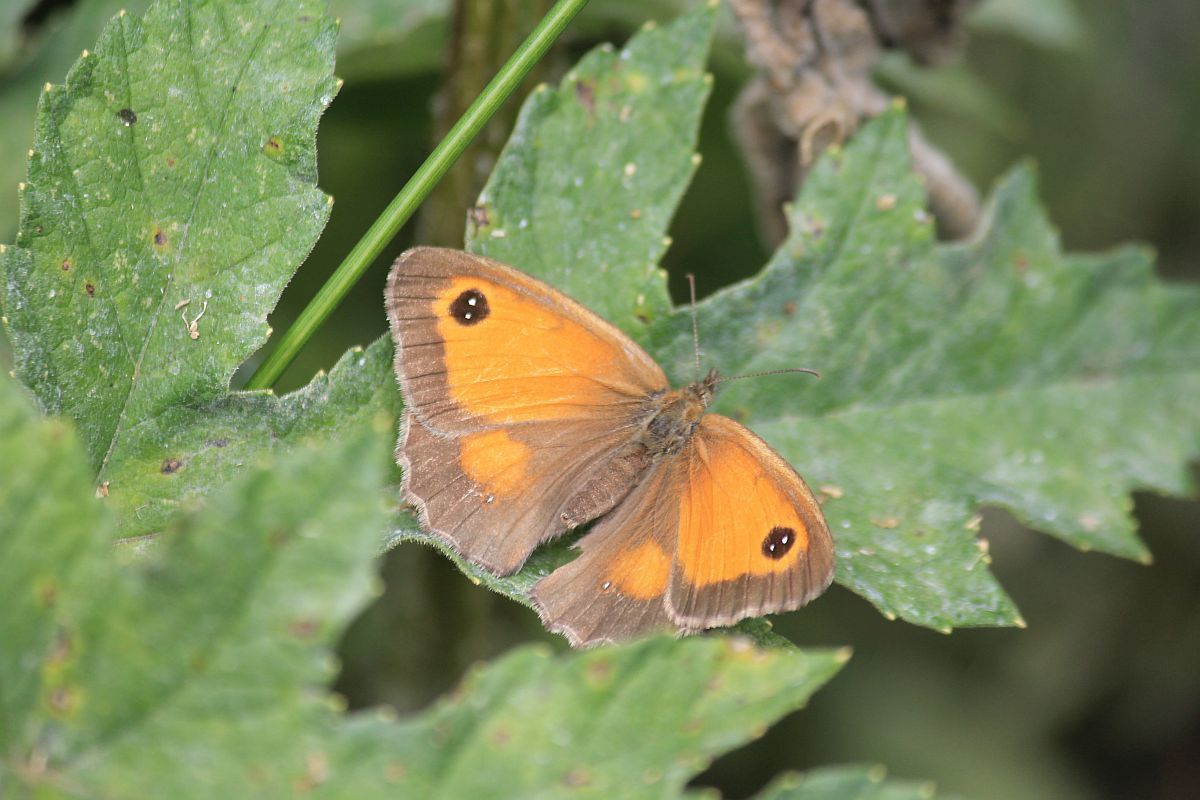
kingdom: Animalia
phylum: Arthropoda
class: Insecta
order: Lepidoptera
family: Nymphalidae
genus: Pyronia
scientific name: Pyronia tithonus
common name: Gatekeeper
